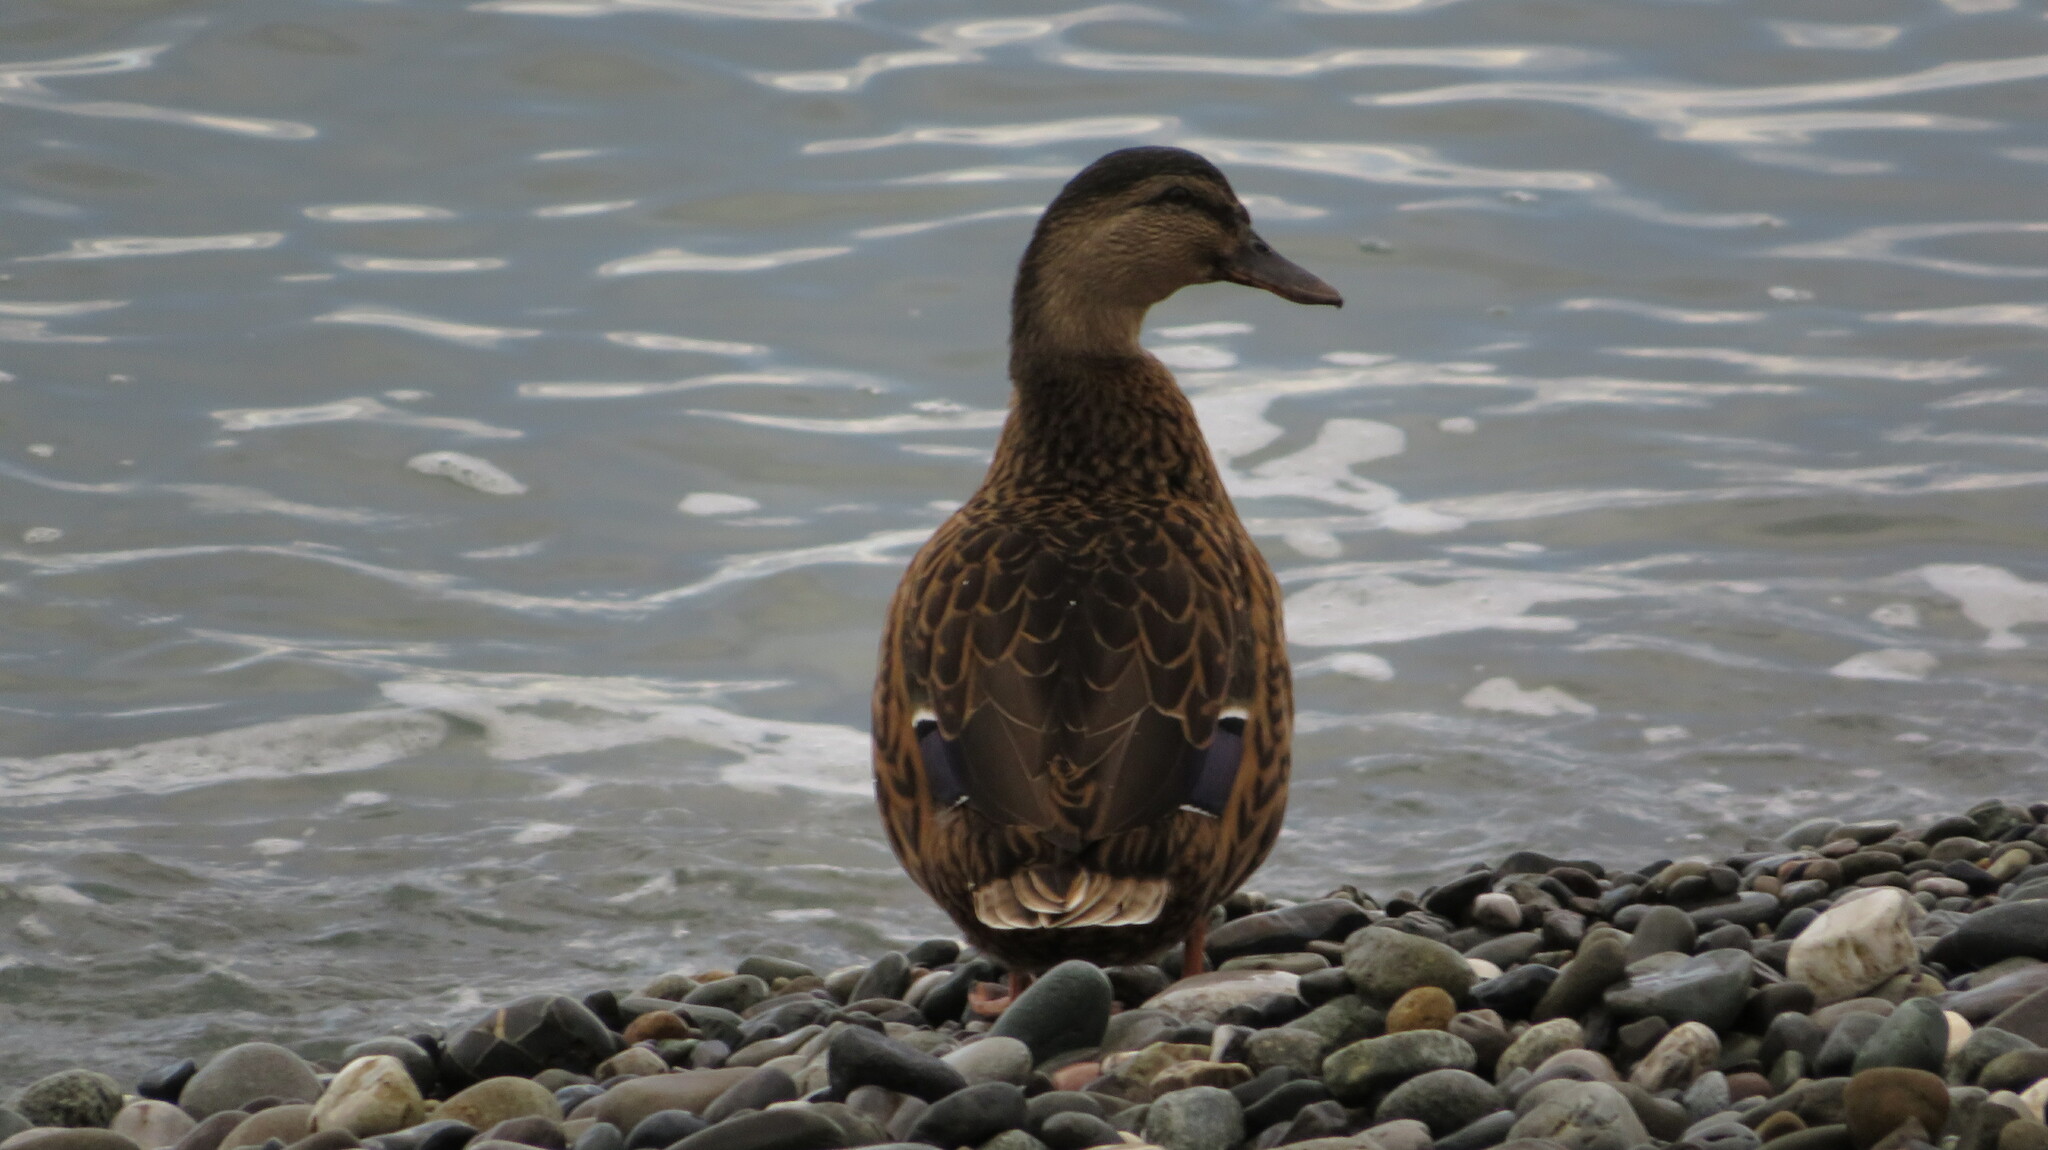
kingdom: Animalia
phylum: Chordata
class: Aves
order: Anseriformes
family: Anatidae
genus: Anas
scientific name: Anas platyrhynchos
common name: Mallard
